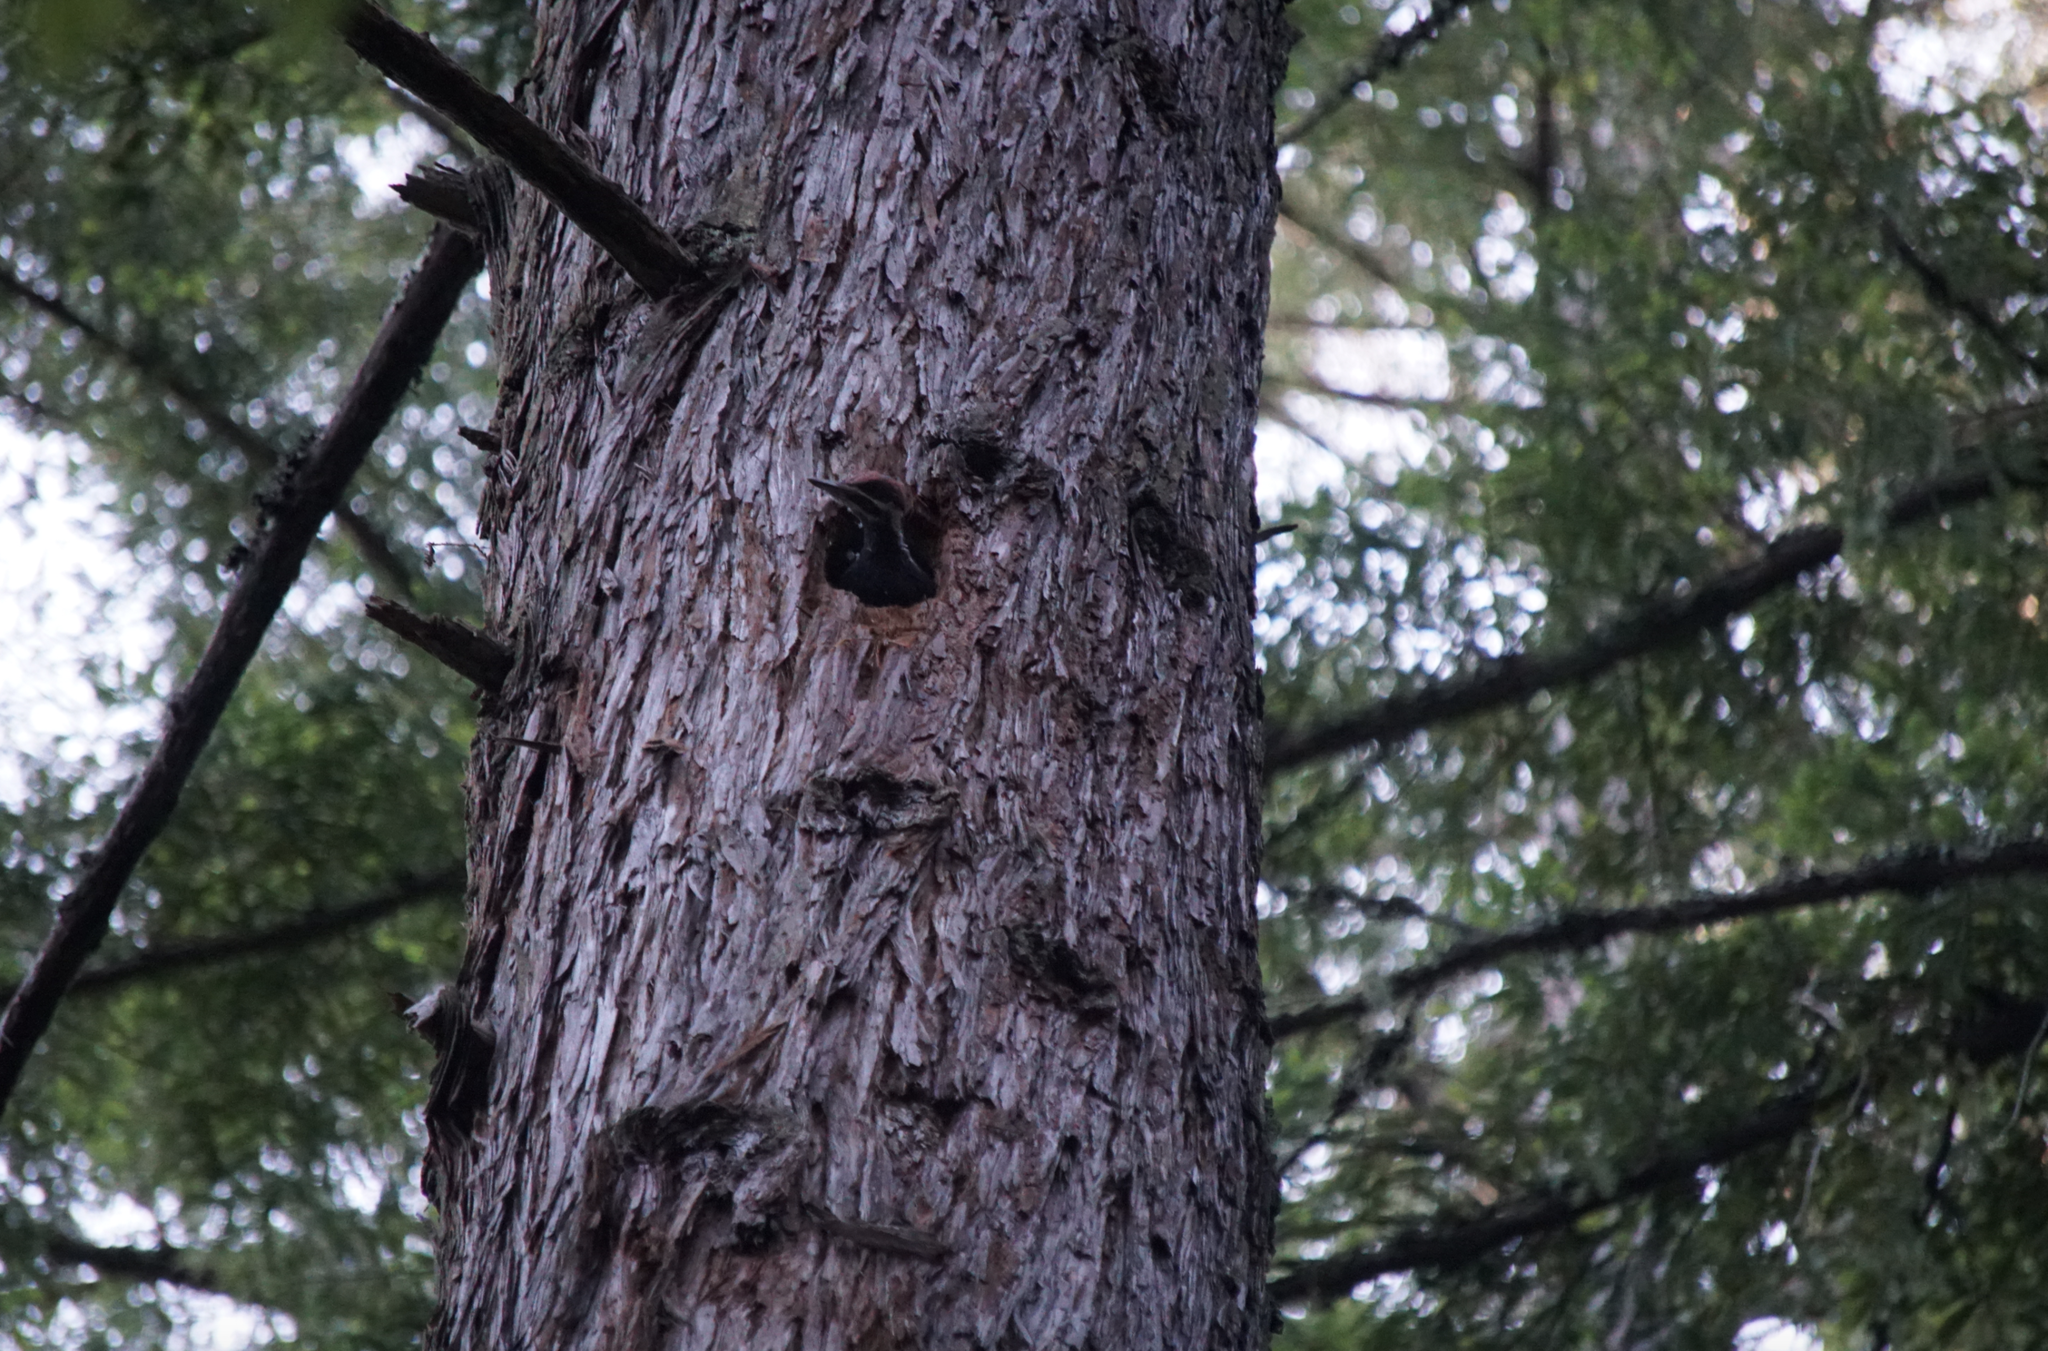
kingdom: Animalia
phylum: Chordata
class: Aves
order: Piciformes
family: Picidae
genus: Dryocopus
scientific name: Dryocopus pileatus
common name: Pileated woodpecker
